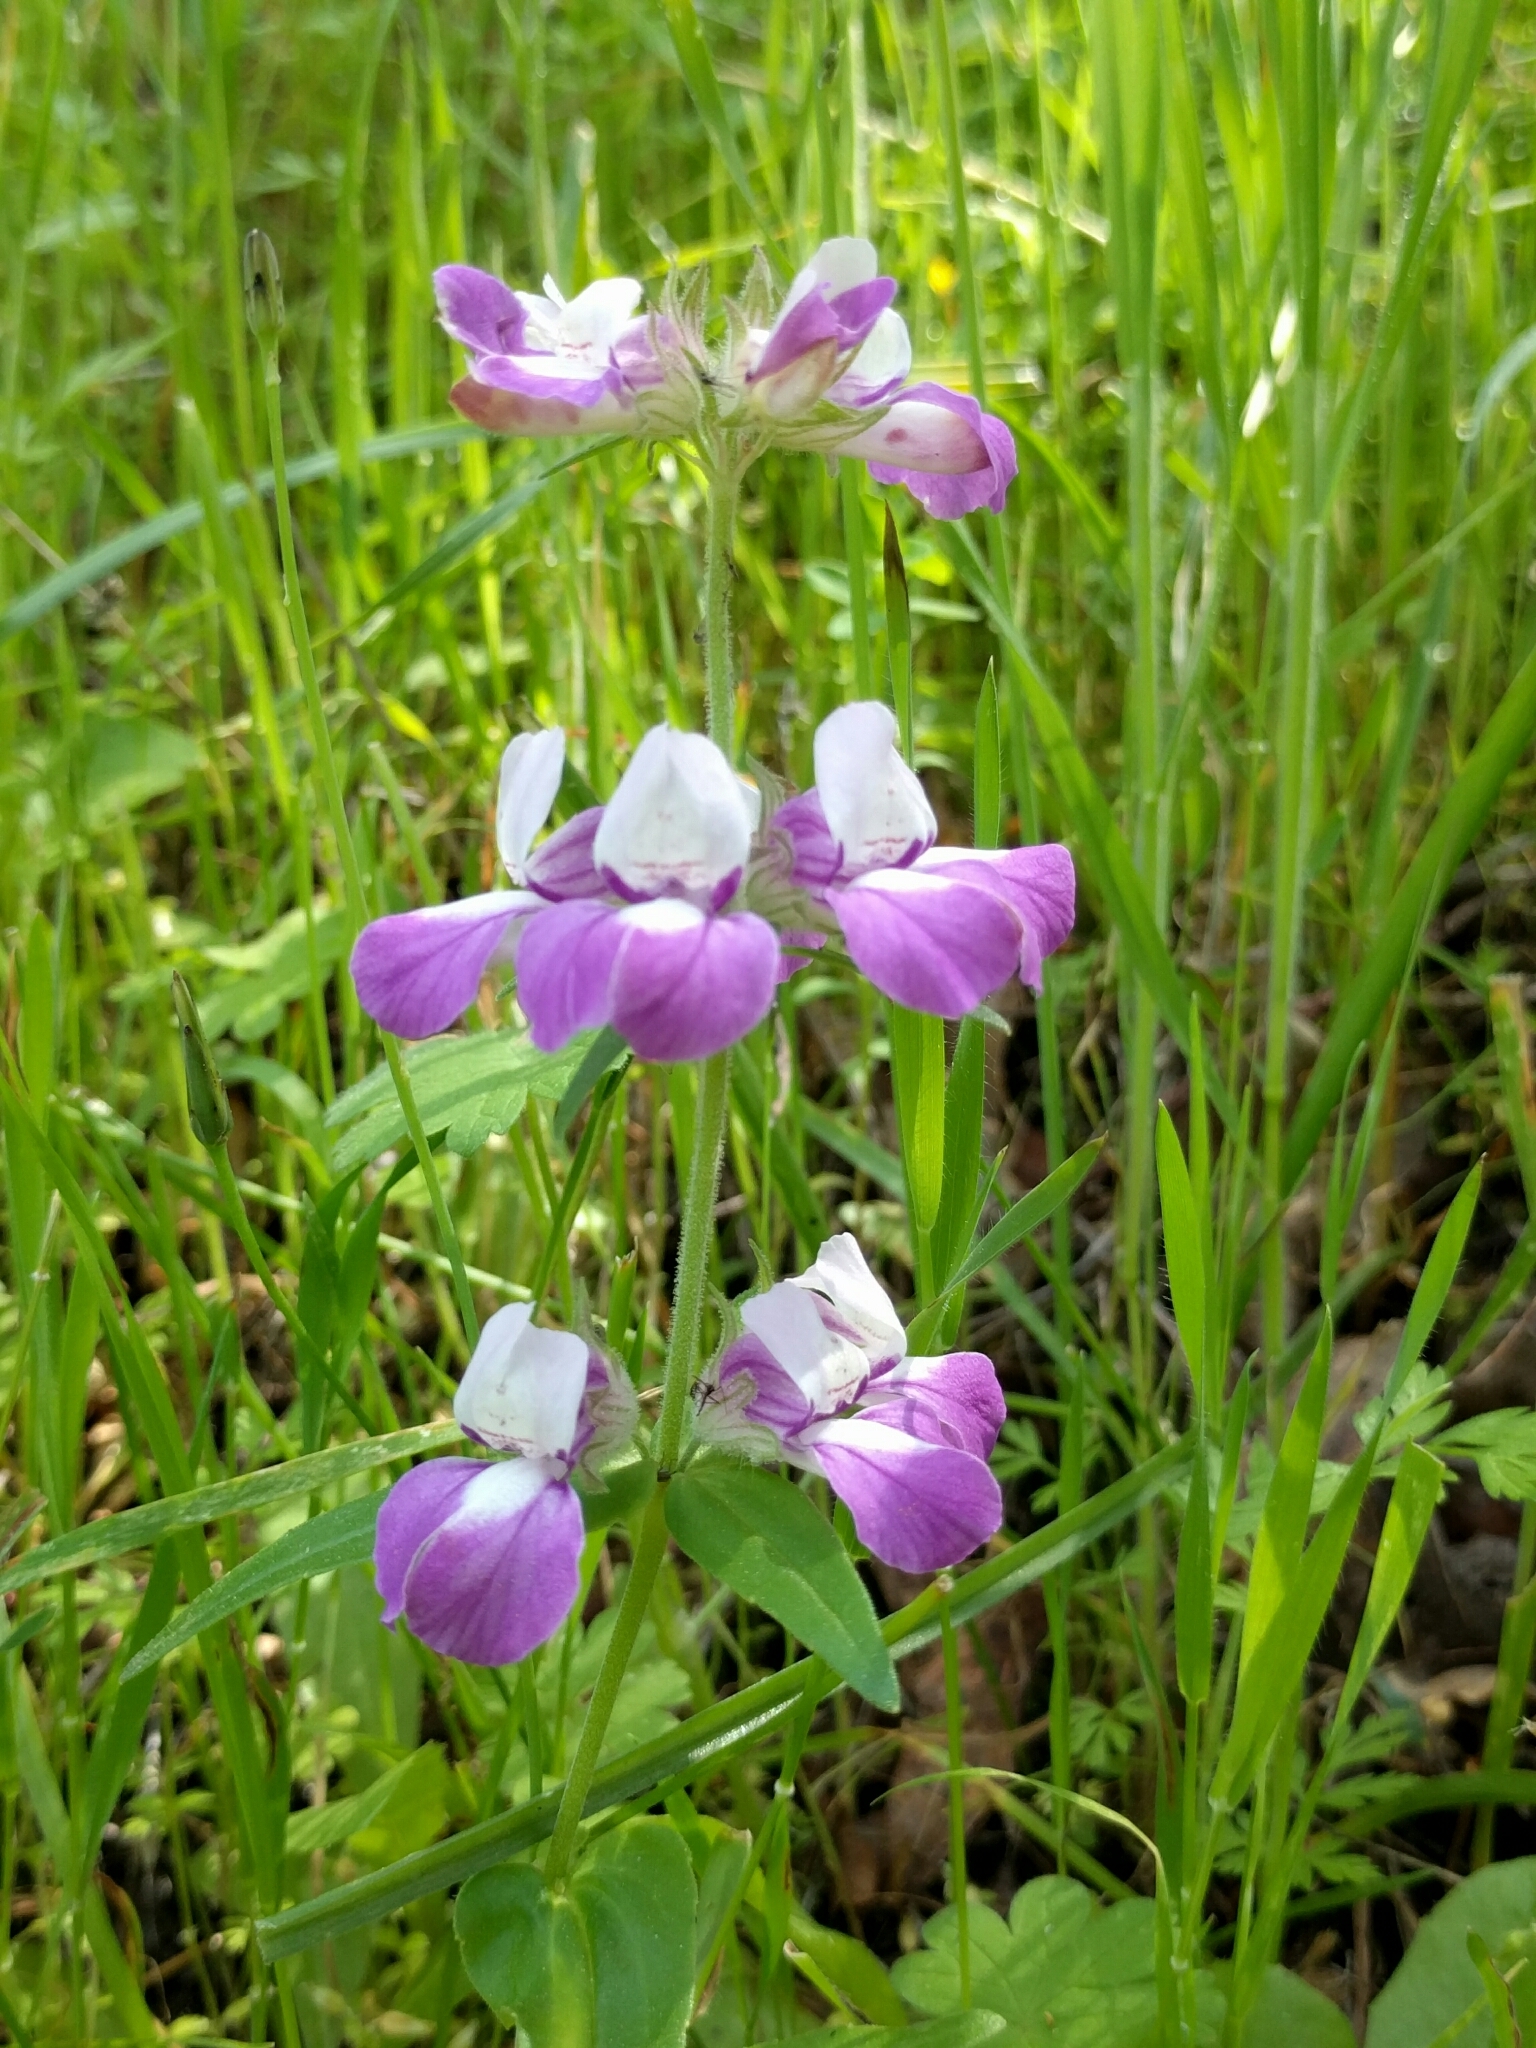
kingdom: Plantae
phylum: Tracheophyta
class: Magnoliopsida
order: Lamiales
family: Plantaginaceae
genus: Collinsia
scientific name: Collinsia heterophylla
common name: Chinese-houses
